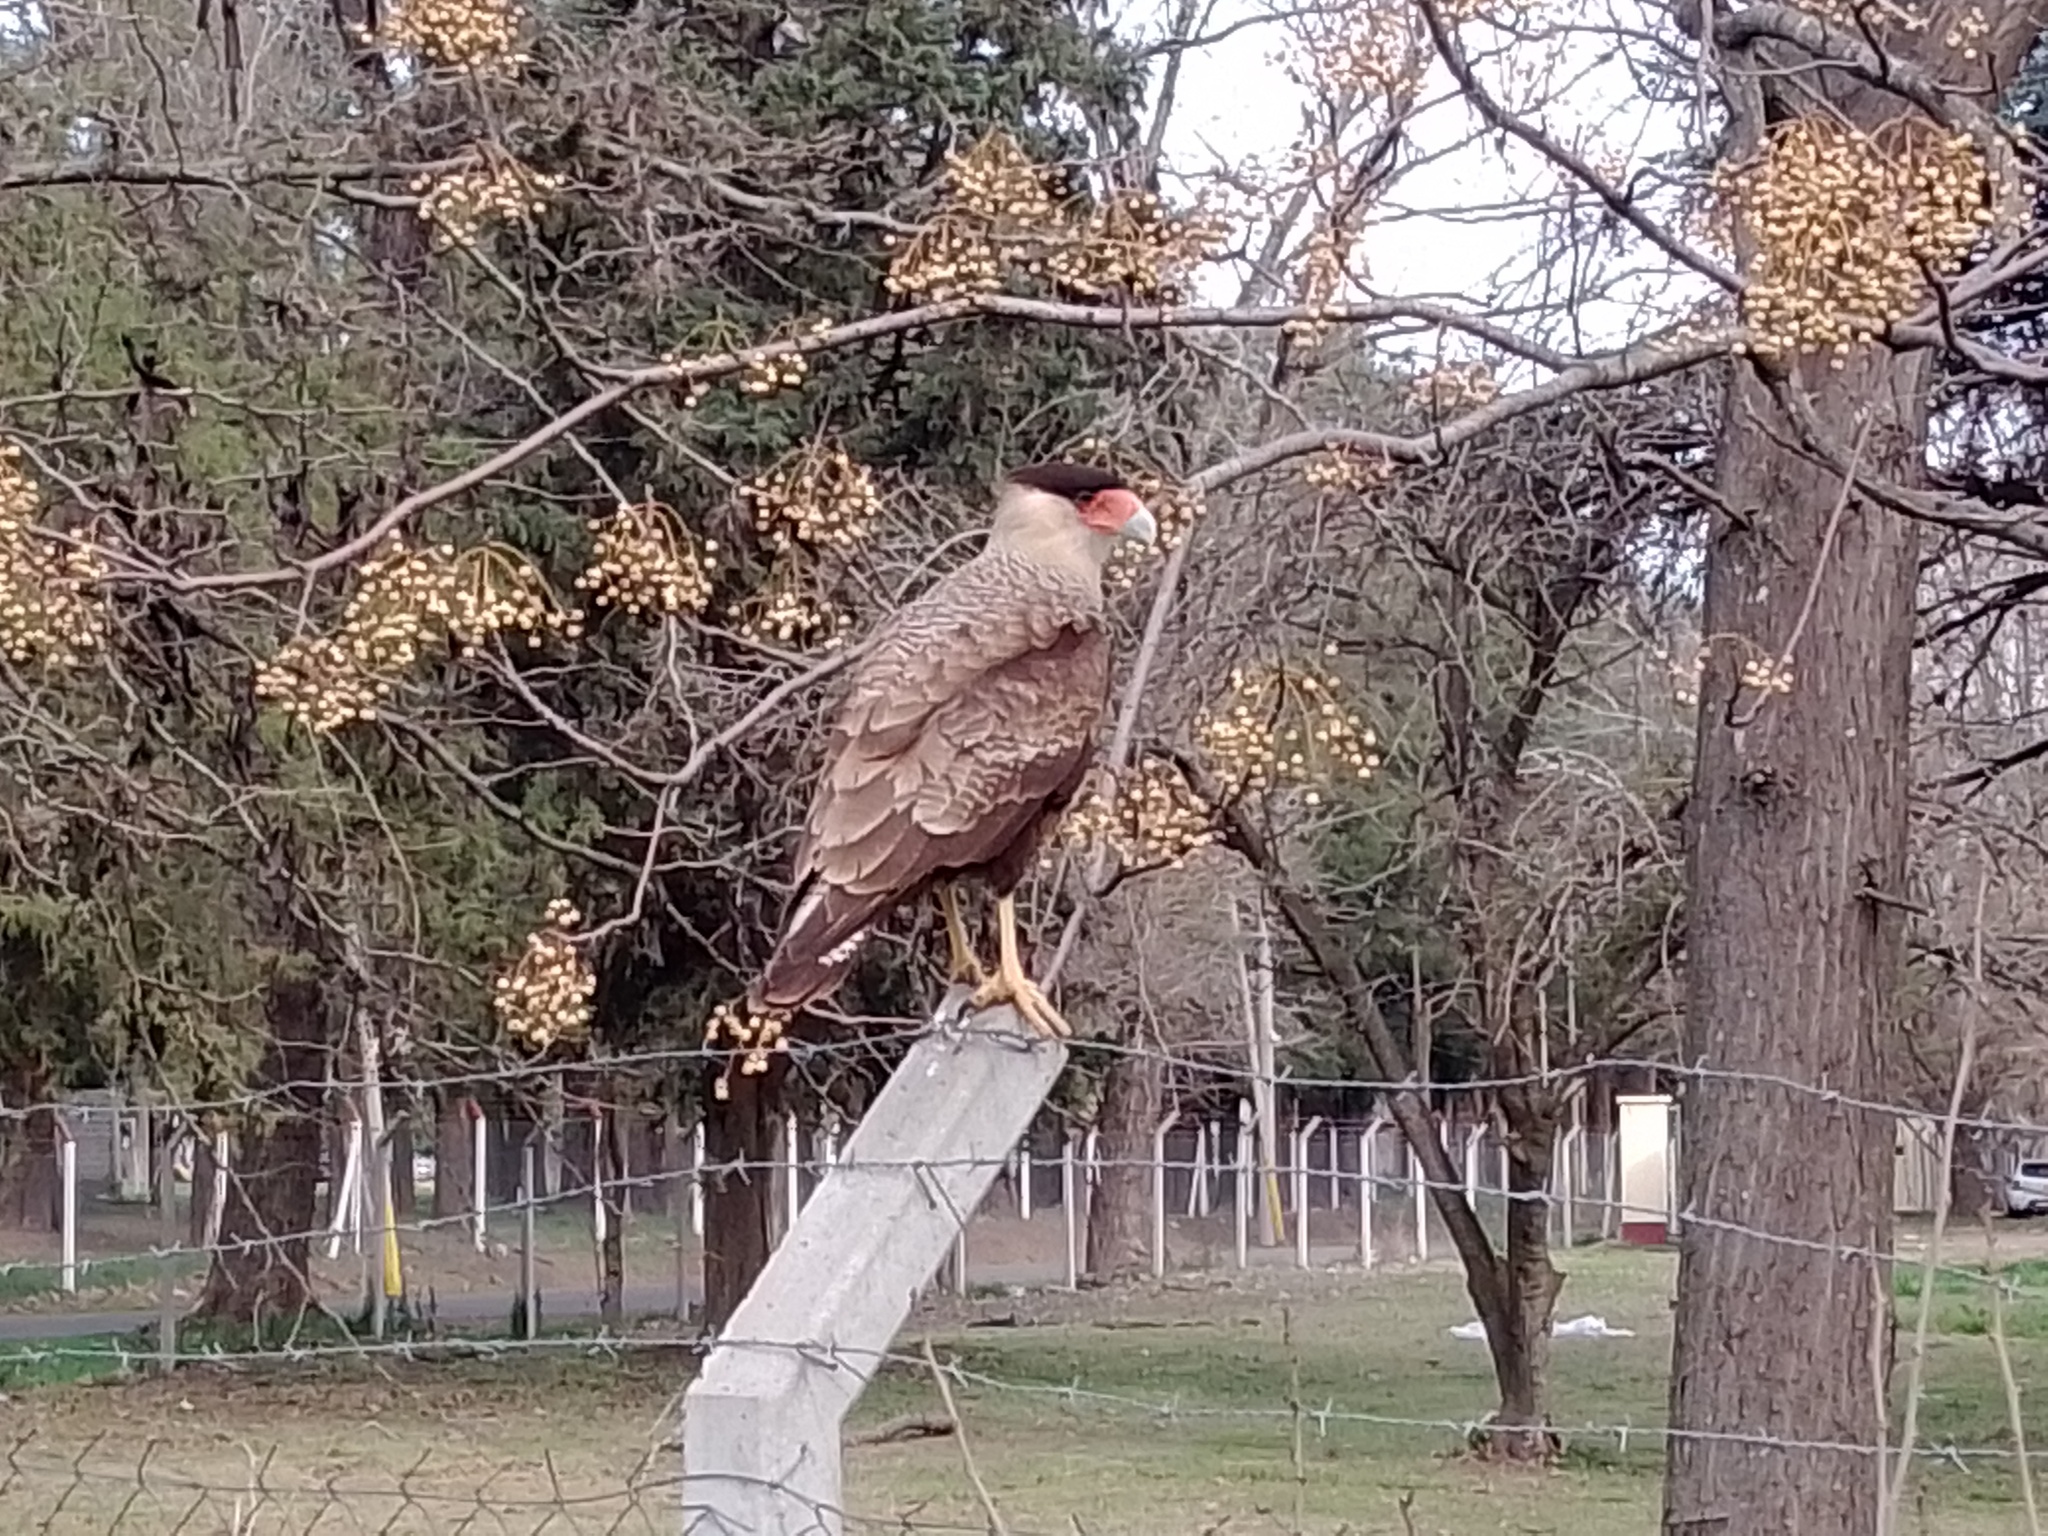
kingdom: Animalia
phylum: Chordata
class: Aves
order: Falconiformes
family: Falconidae
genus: Caracara
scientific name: Caracara plancus
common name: Southern caracara
